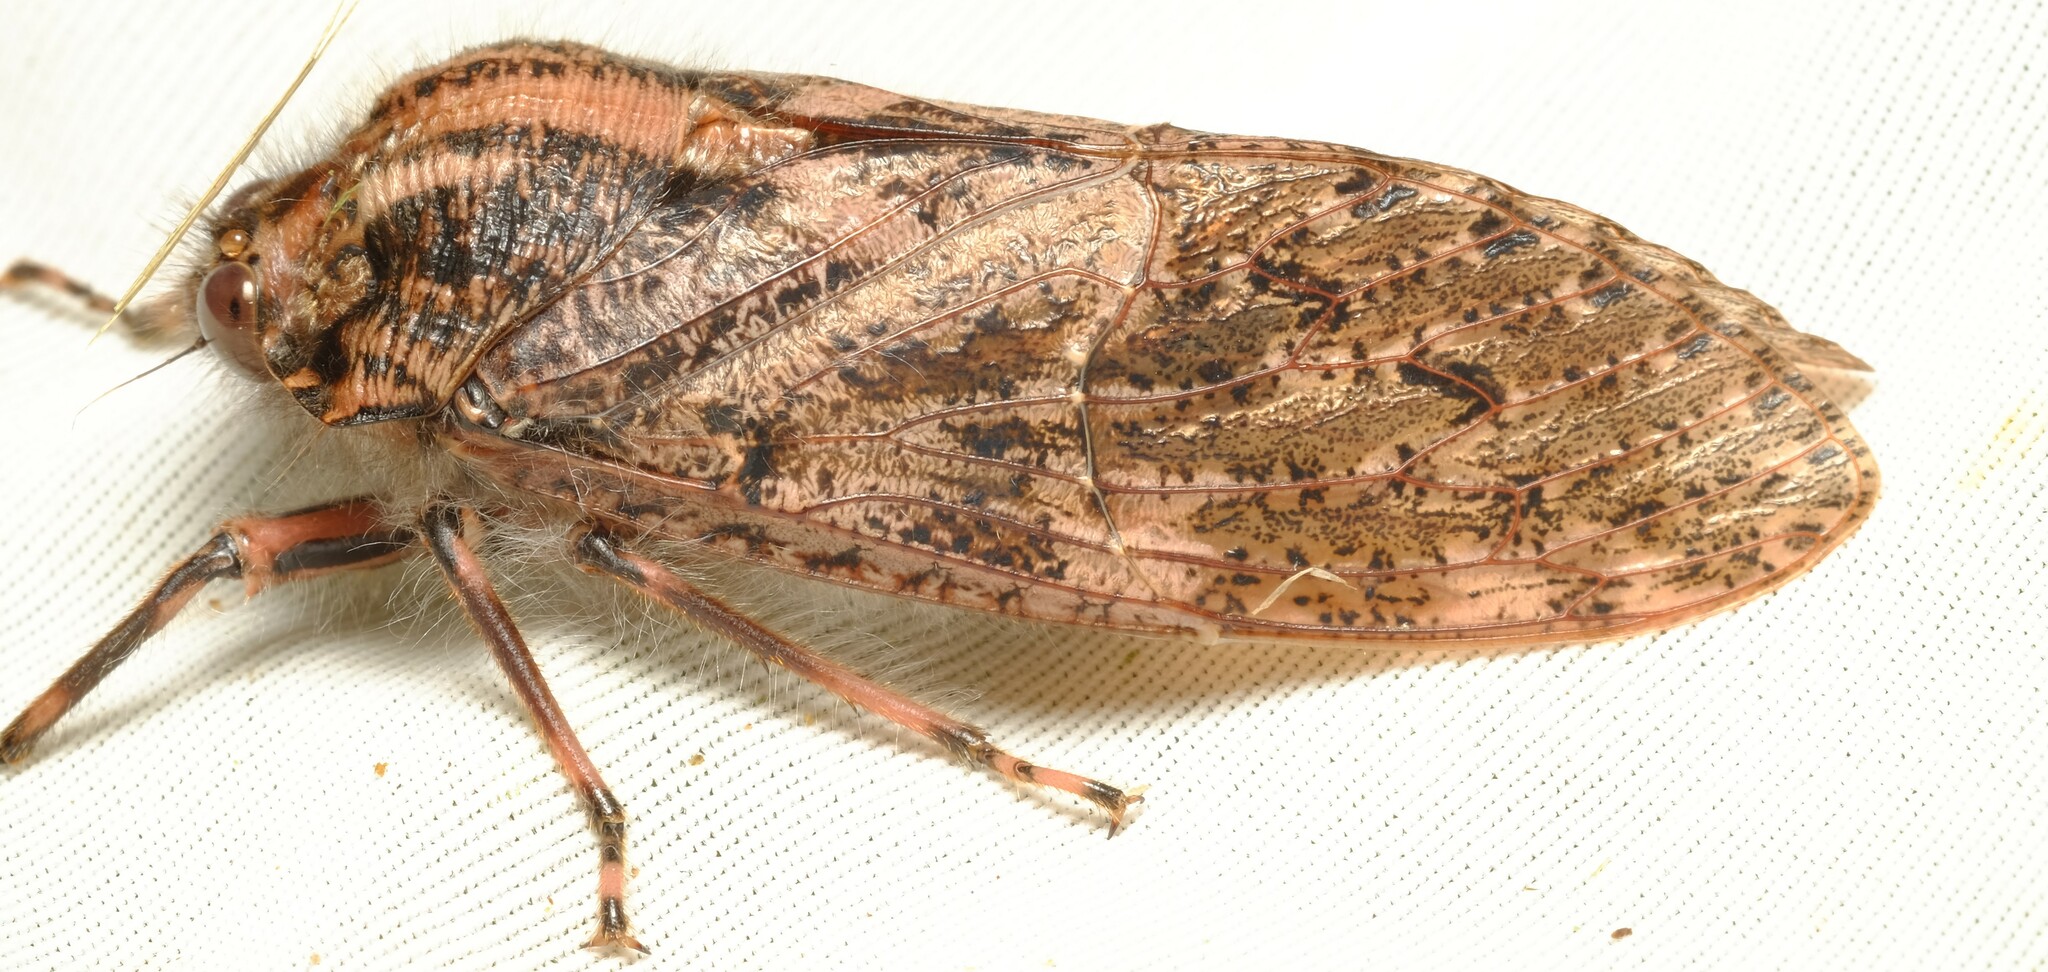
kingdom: Animalia
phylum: Arthropoda
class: Insecta
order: Hemiptera
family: Tettigarctidae
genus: Tettigarcta
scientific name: Tettigarcta crinita
